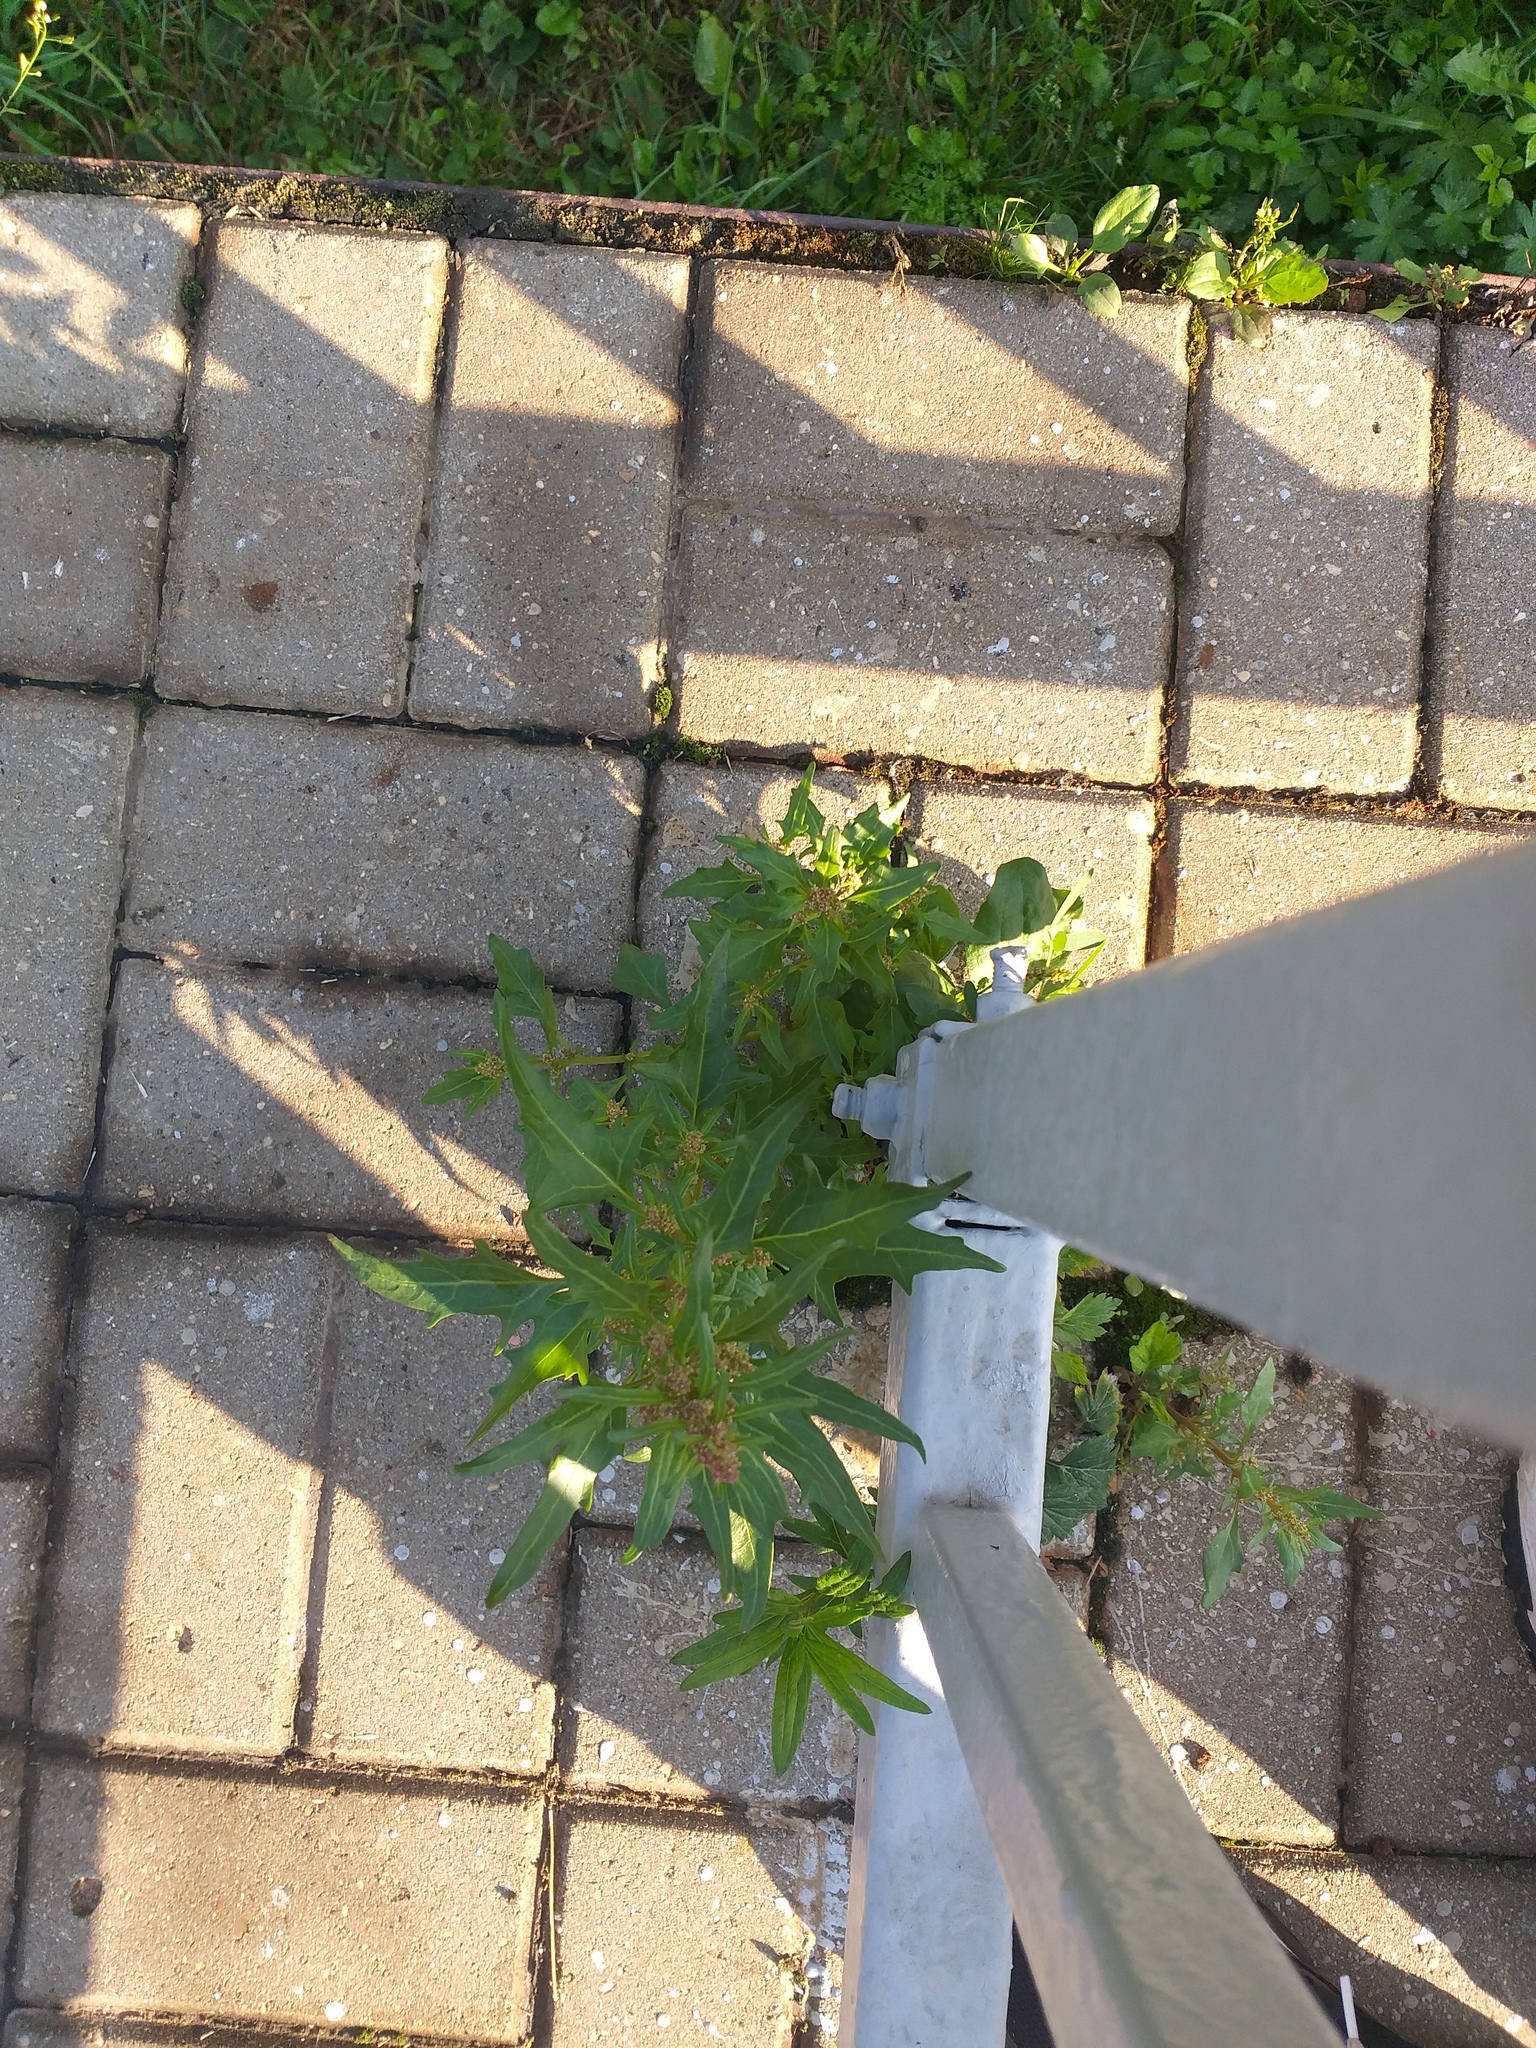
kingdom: Plantae
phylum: Tracheophyta
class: Magnoliopsida
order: Caryophyllales
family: Amaranthaceae
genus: Oxybasis
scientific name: Oxybasis rubra
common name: Red goosefoot
